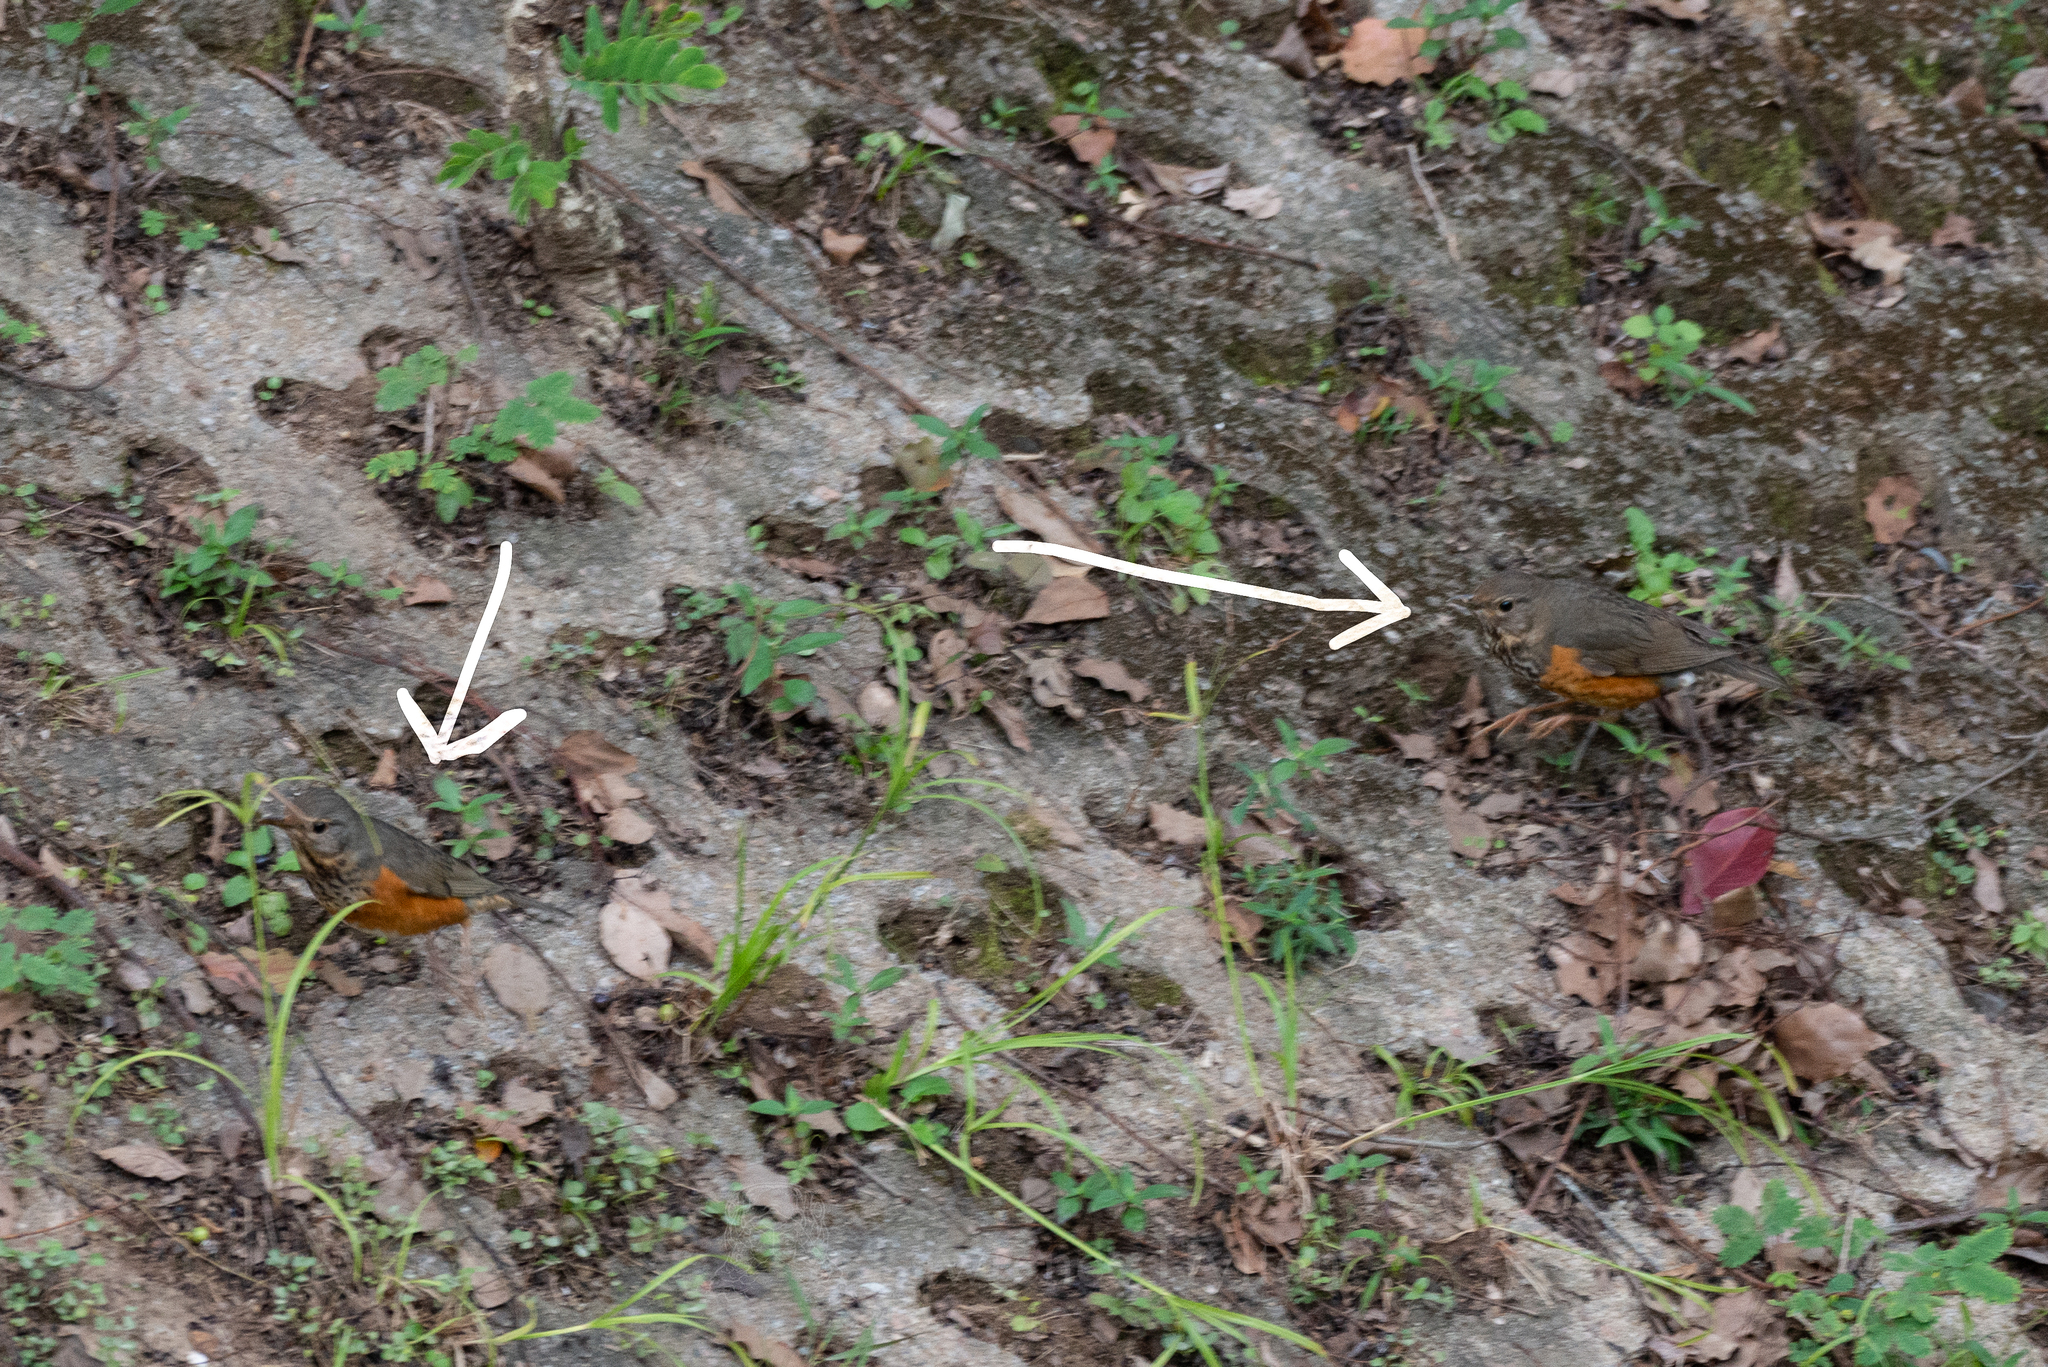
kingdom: Animalia
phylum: Chordata
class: Aves
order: Passeriformes
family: Turdidae
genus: Turdus
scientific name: Turdus hortulorum
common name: Grey-backed thrush
